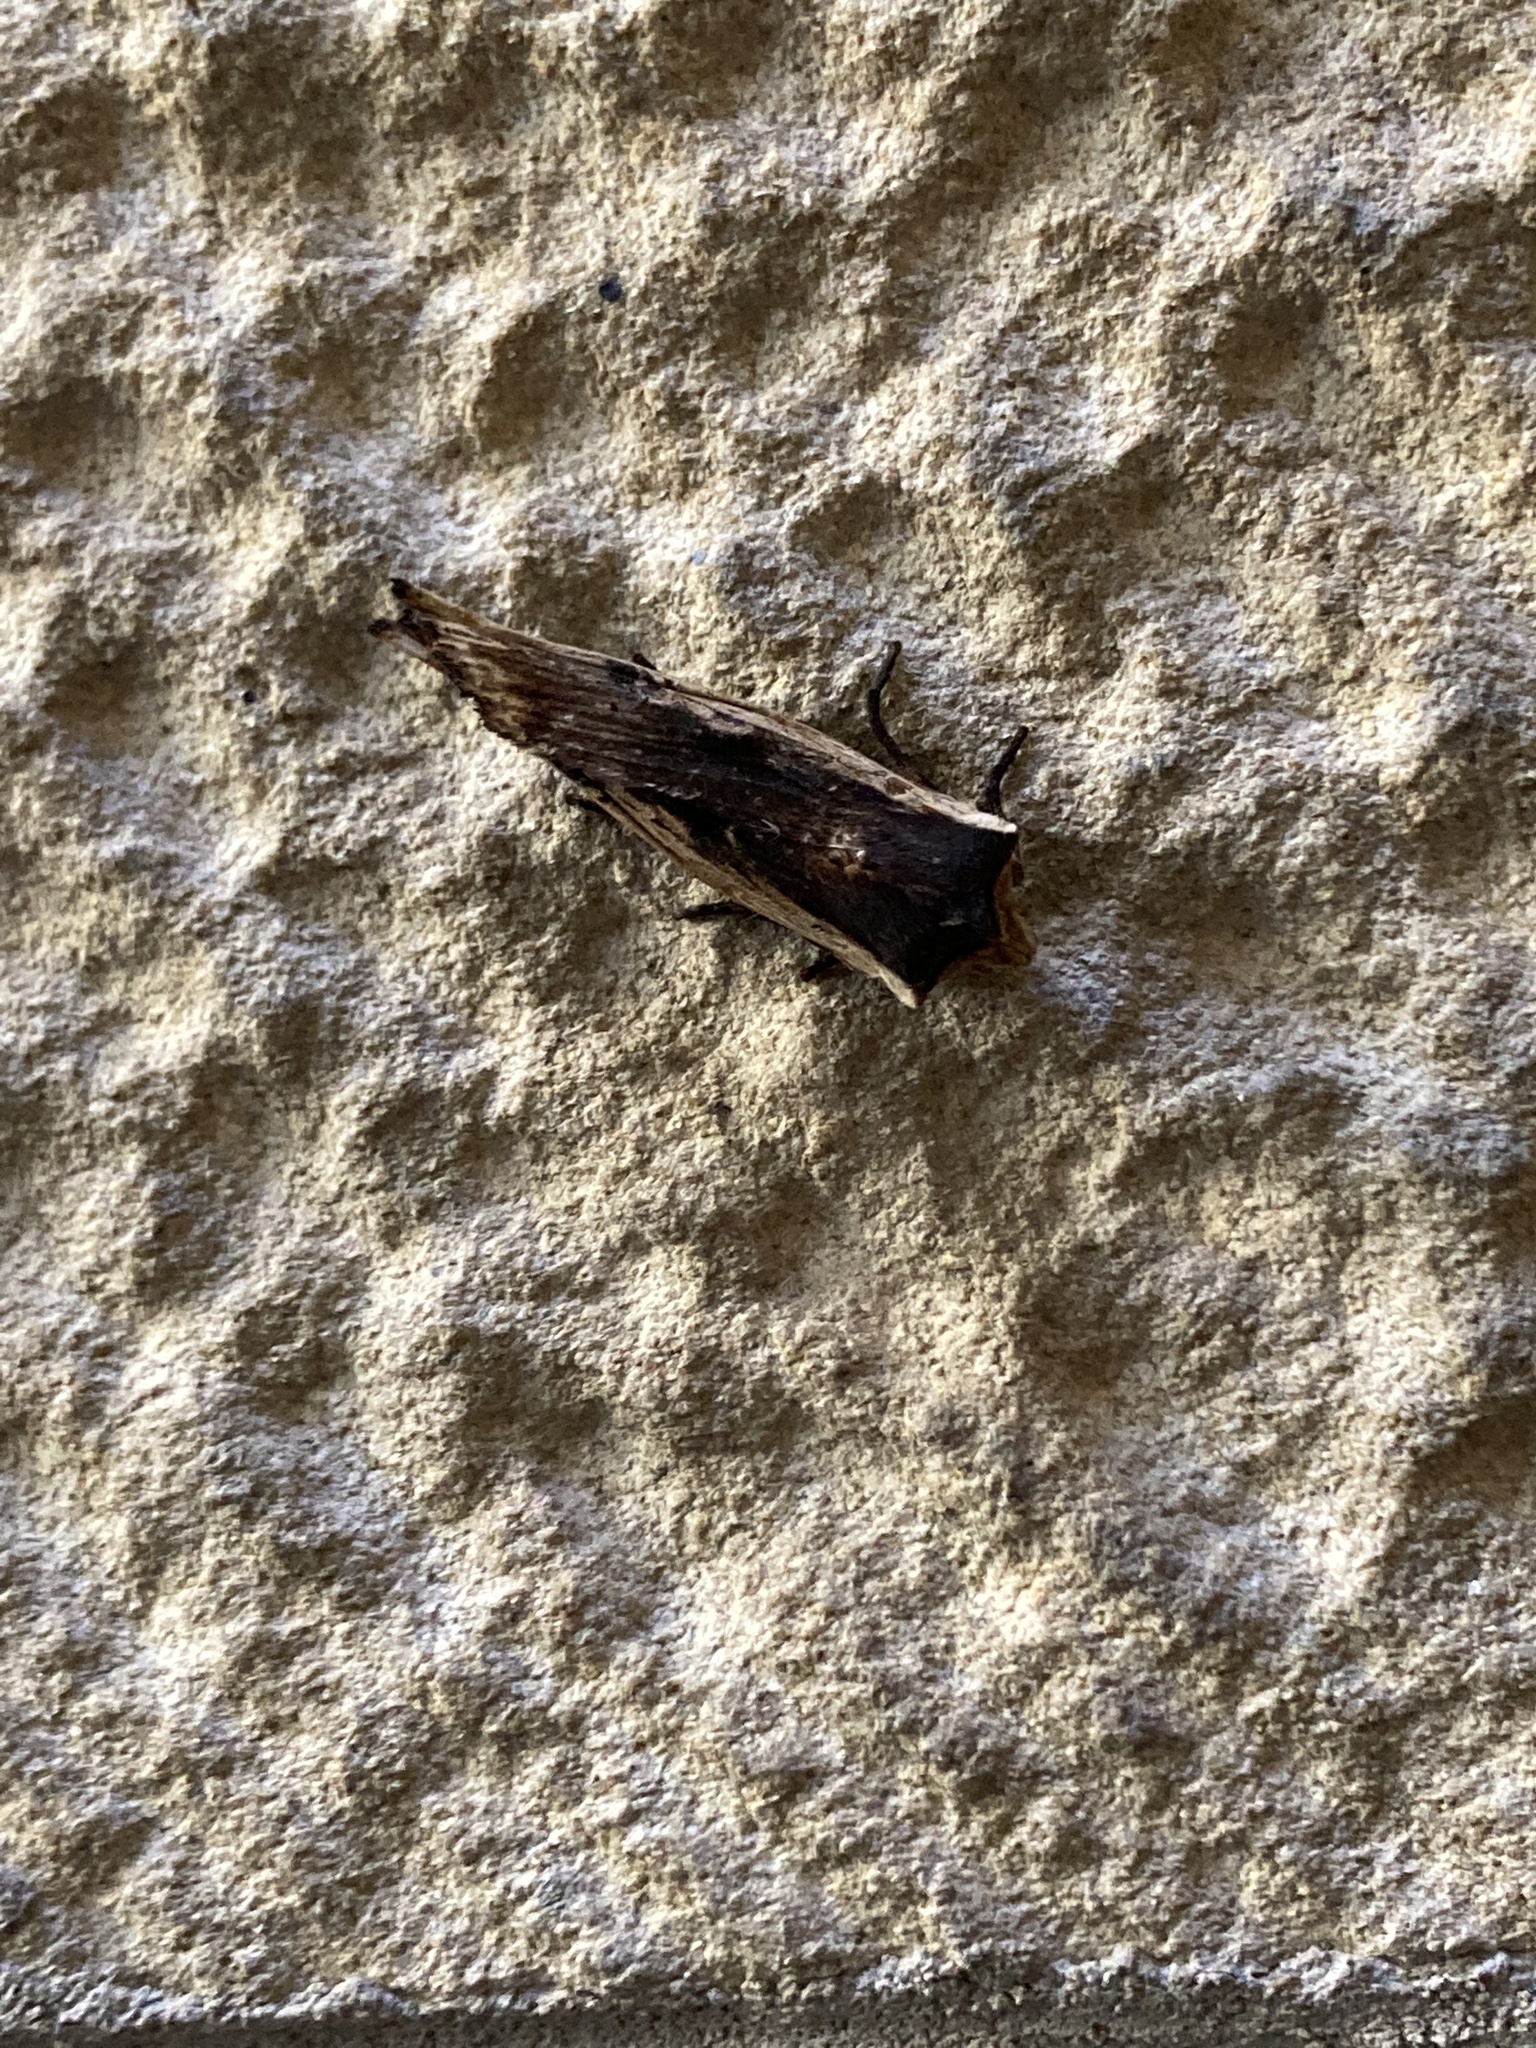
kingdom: Animalia
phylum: Arthropoda
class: Insecta
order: Lepidoptera
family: Noctuidae
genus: Xylena
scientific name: Xylena vetusta
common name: Red sword-grass
